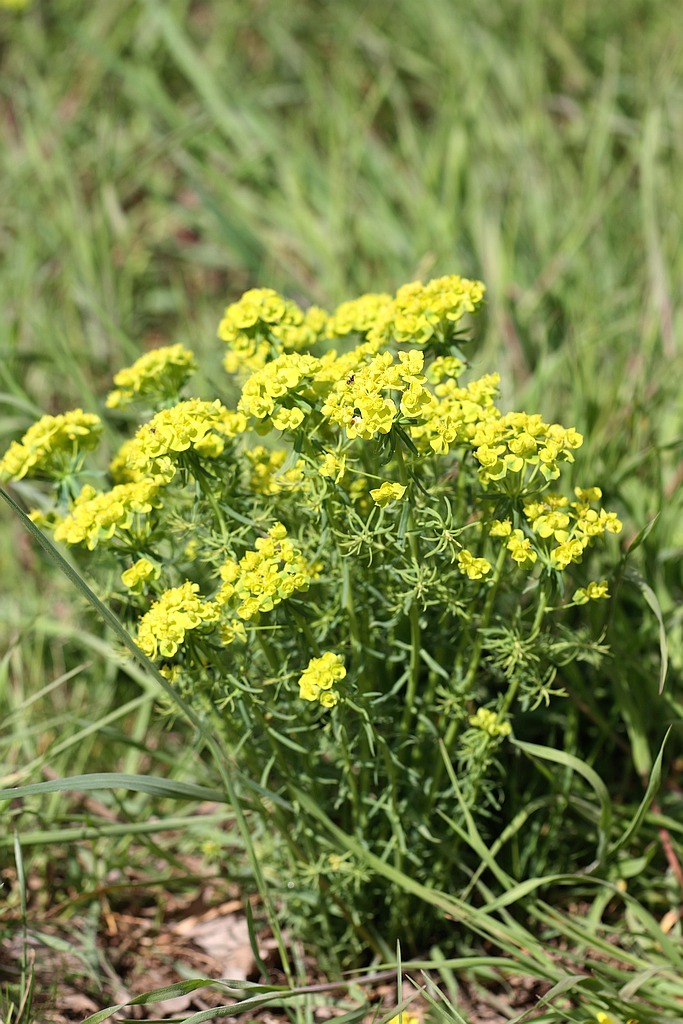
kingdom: Plantae
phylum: Tracheophyta
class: Magnoliopsida
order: Malpighiales
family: Euphorbiaceae
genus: Euphorbia
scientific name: Euphorbia cyparissias
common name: Cypress spurge
